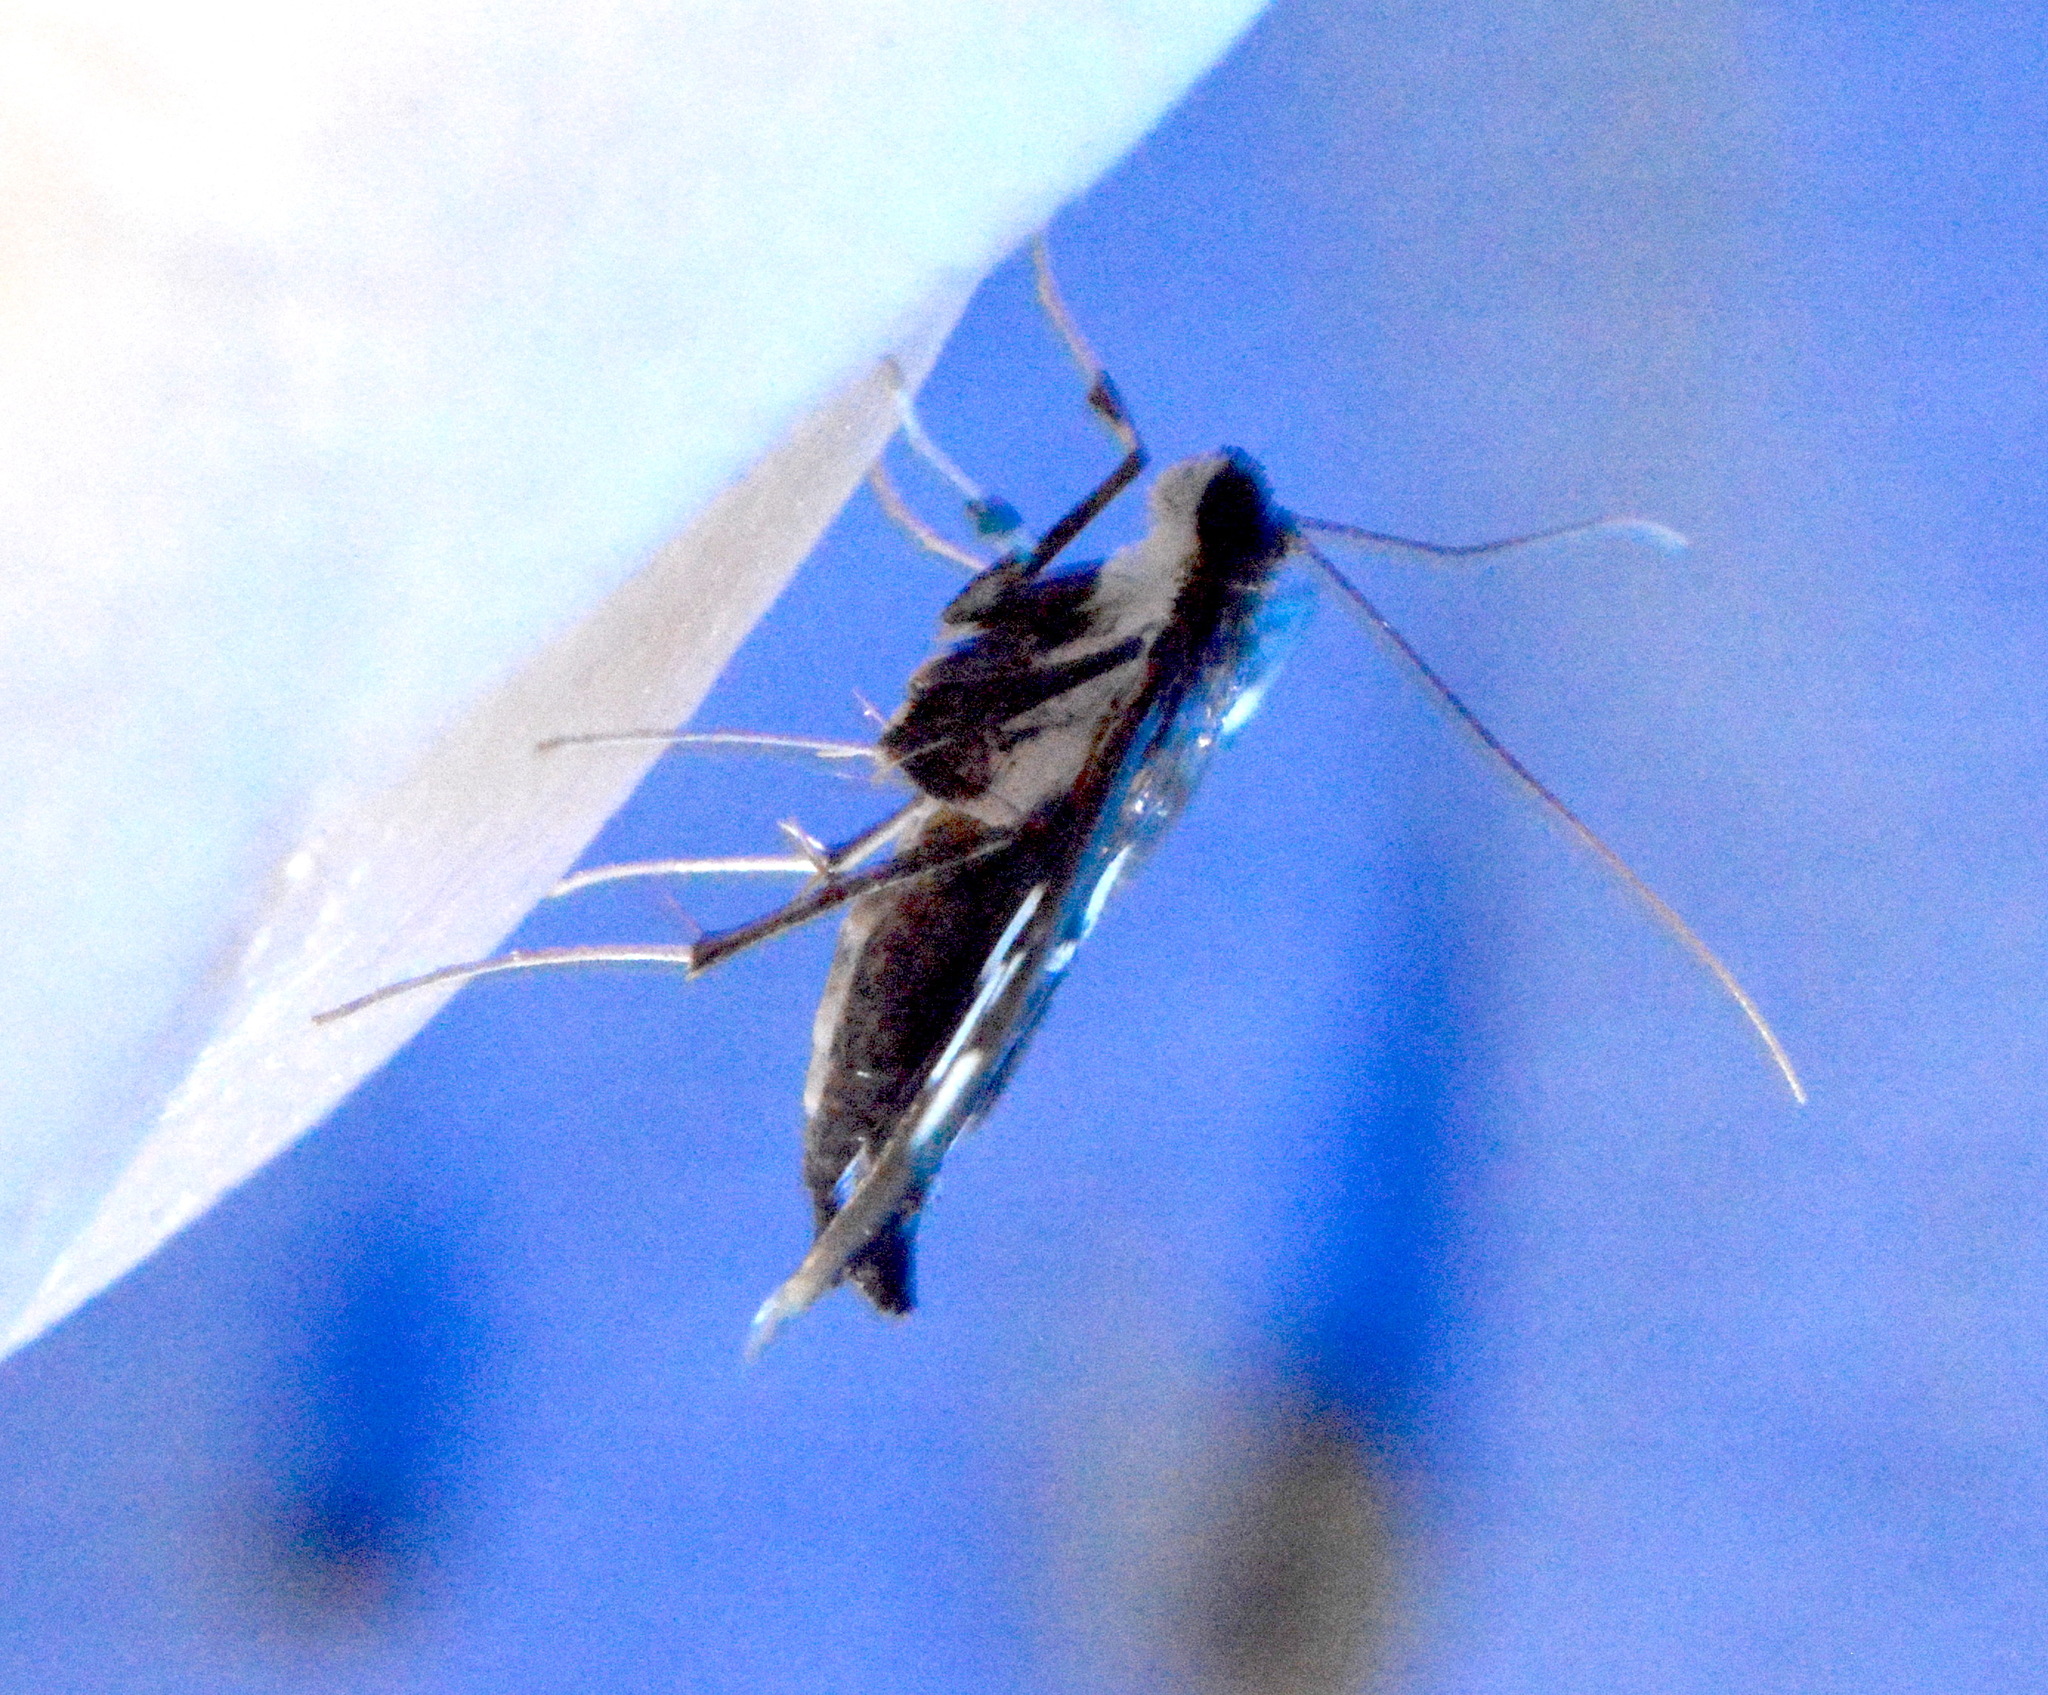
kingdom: Animalia
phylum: Arthropoda
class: Insecta
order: Lepidoptera
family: Crambidae
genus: Desmia
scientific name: Desmia funeralis
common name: Grape leaf folder moth
